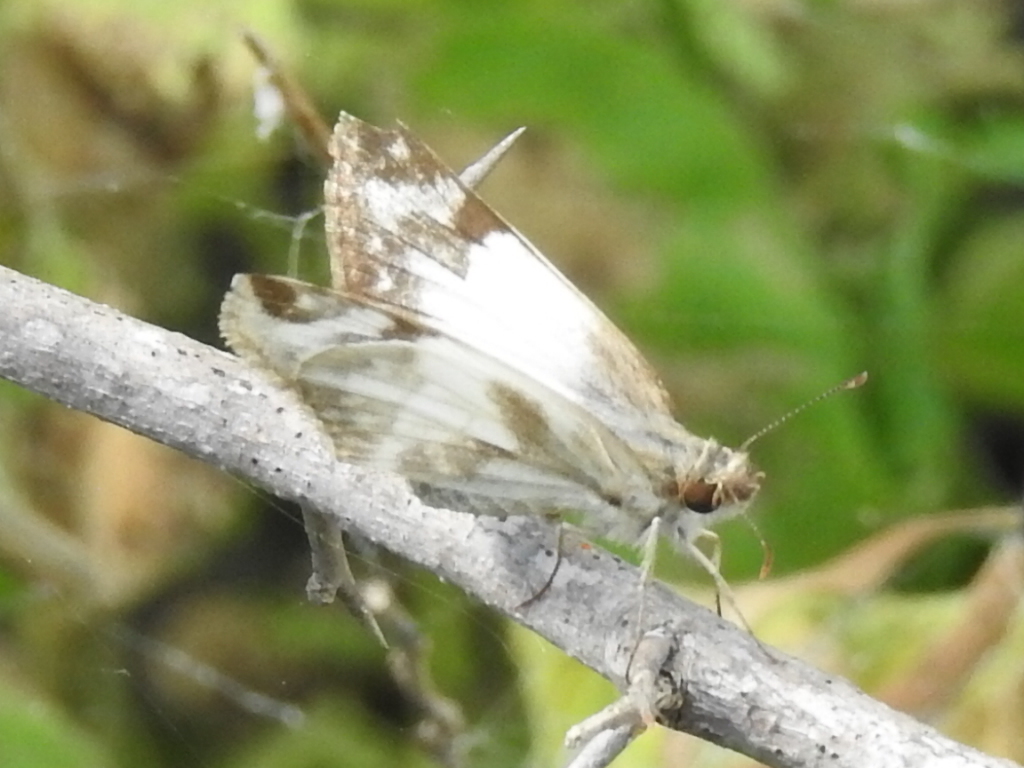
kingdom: Animalia
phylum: Arthropoda
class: Insecta
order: Lepidoptera
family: Hesperiidae
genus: Heliopetes
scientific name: Heliopetes laviana
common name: Laviana white-skipper
